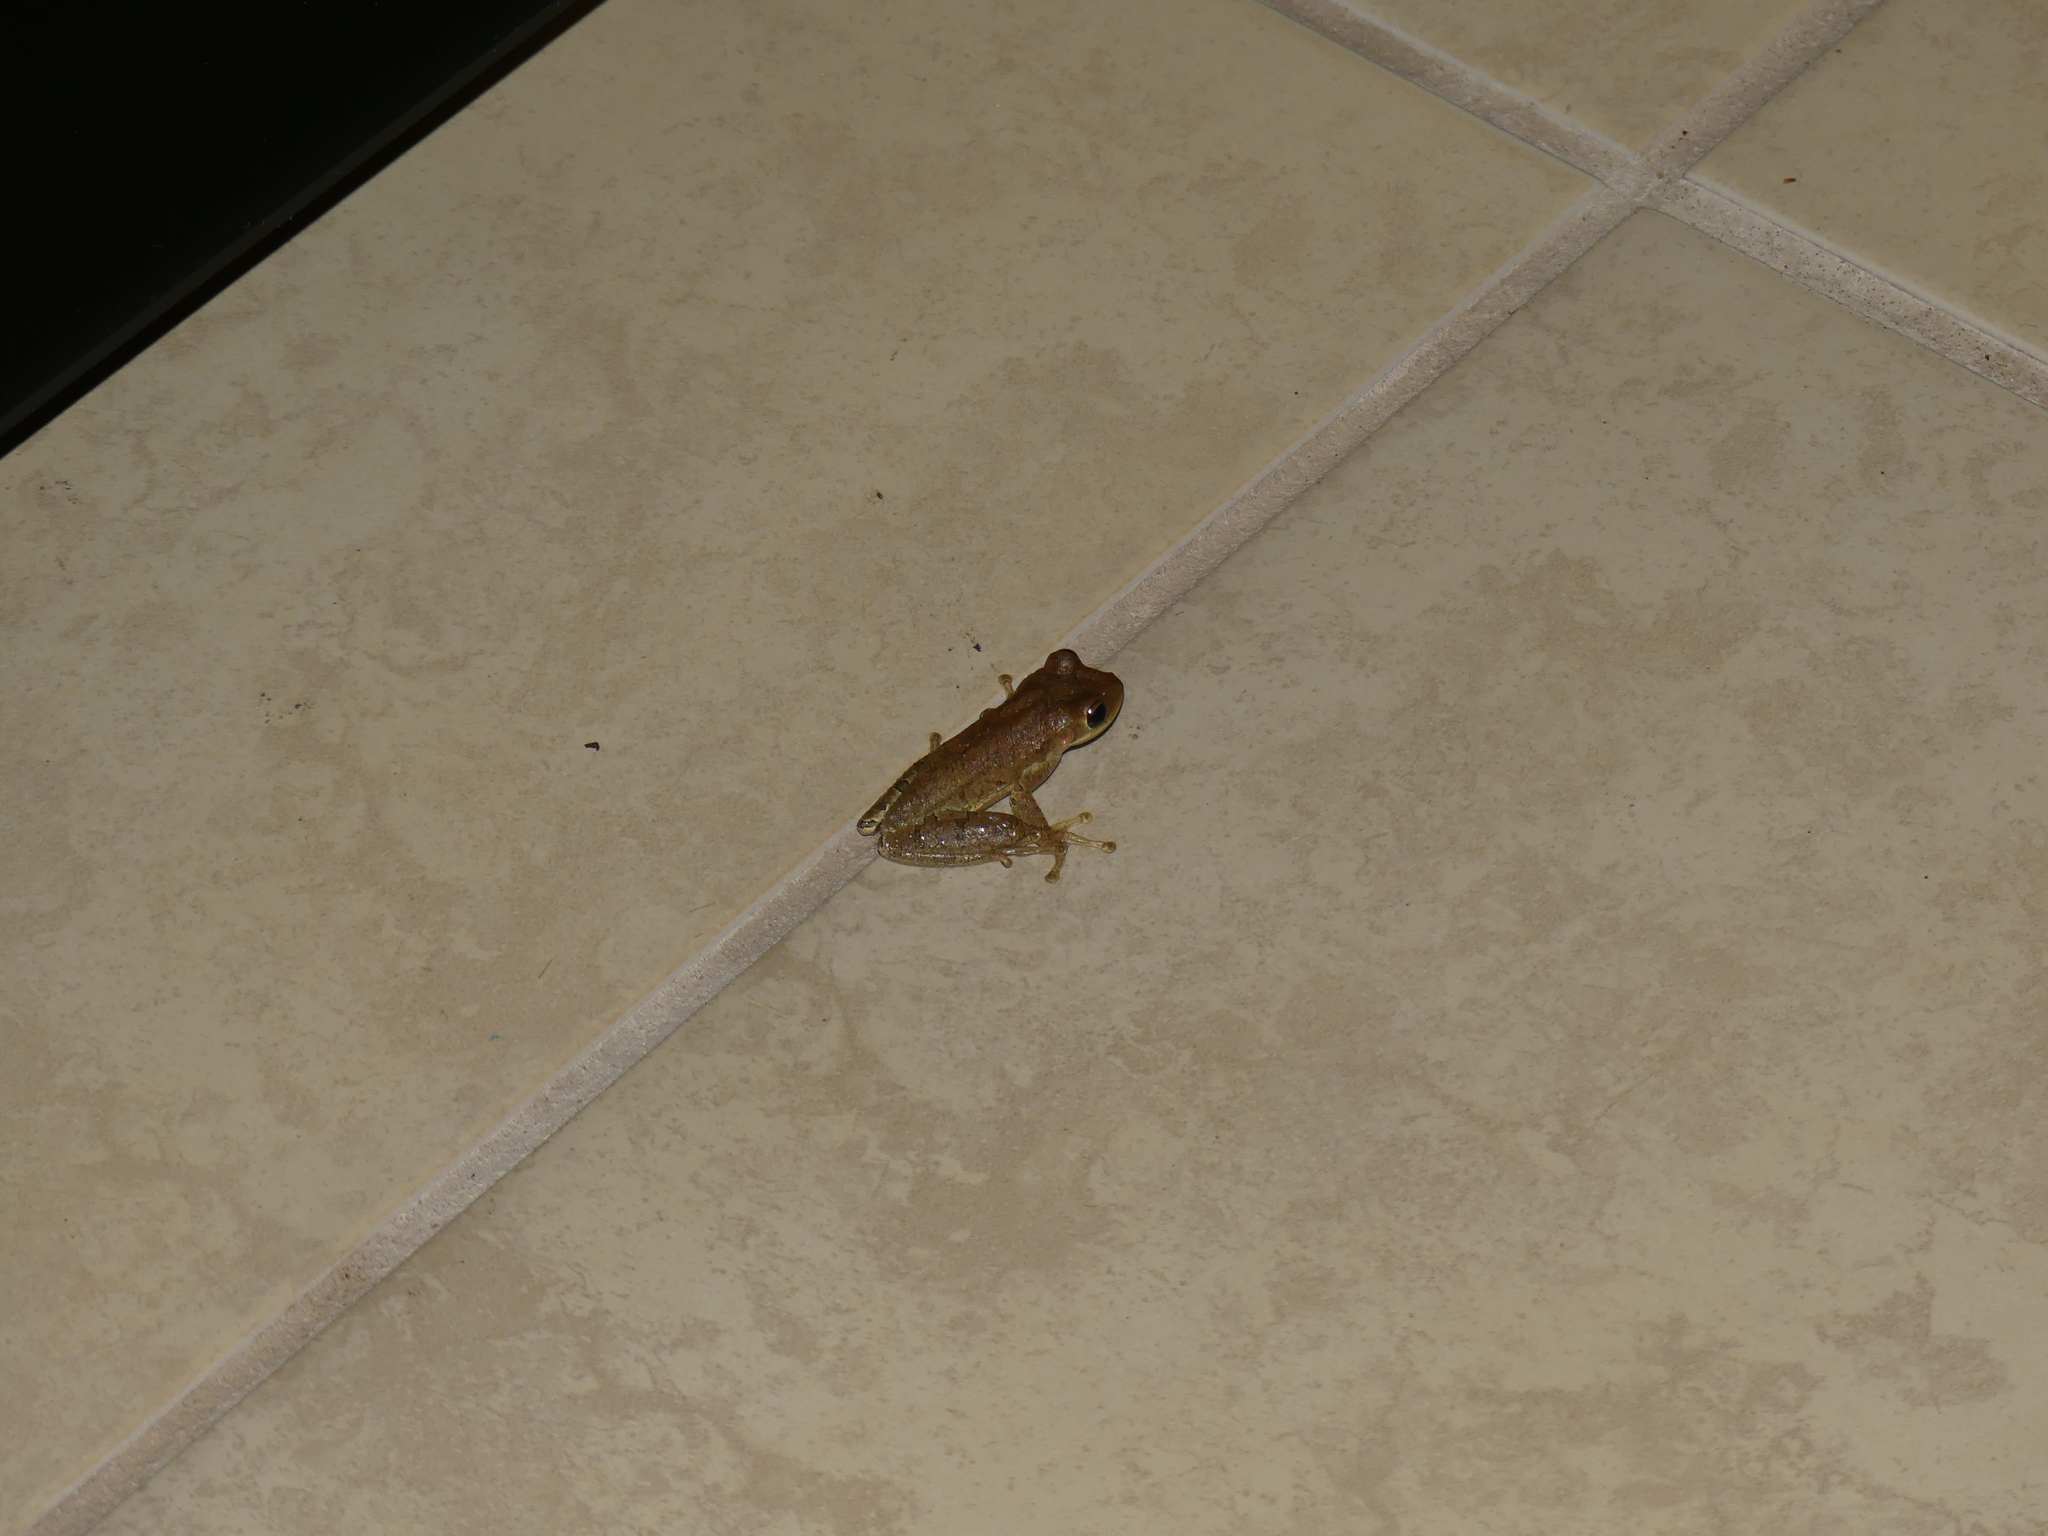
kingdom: Animalia
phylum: Chordata
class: Amphibia
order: Anura
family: Hylidae
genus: Osteopilus
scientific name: Osteopilus septentrionalis
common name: Cuban treefrog
